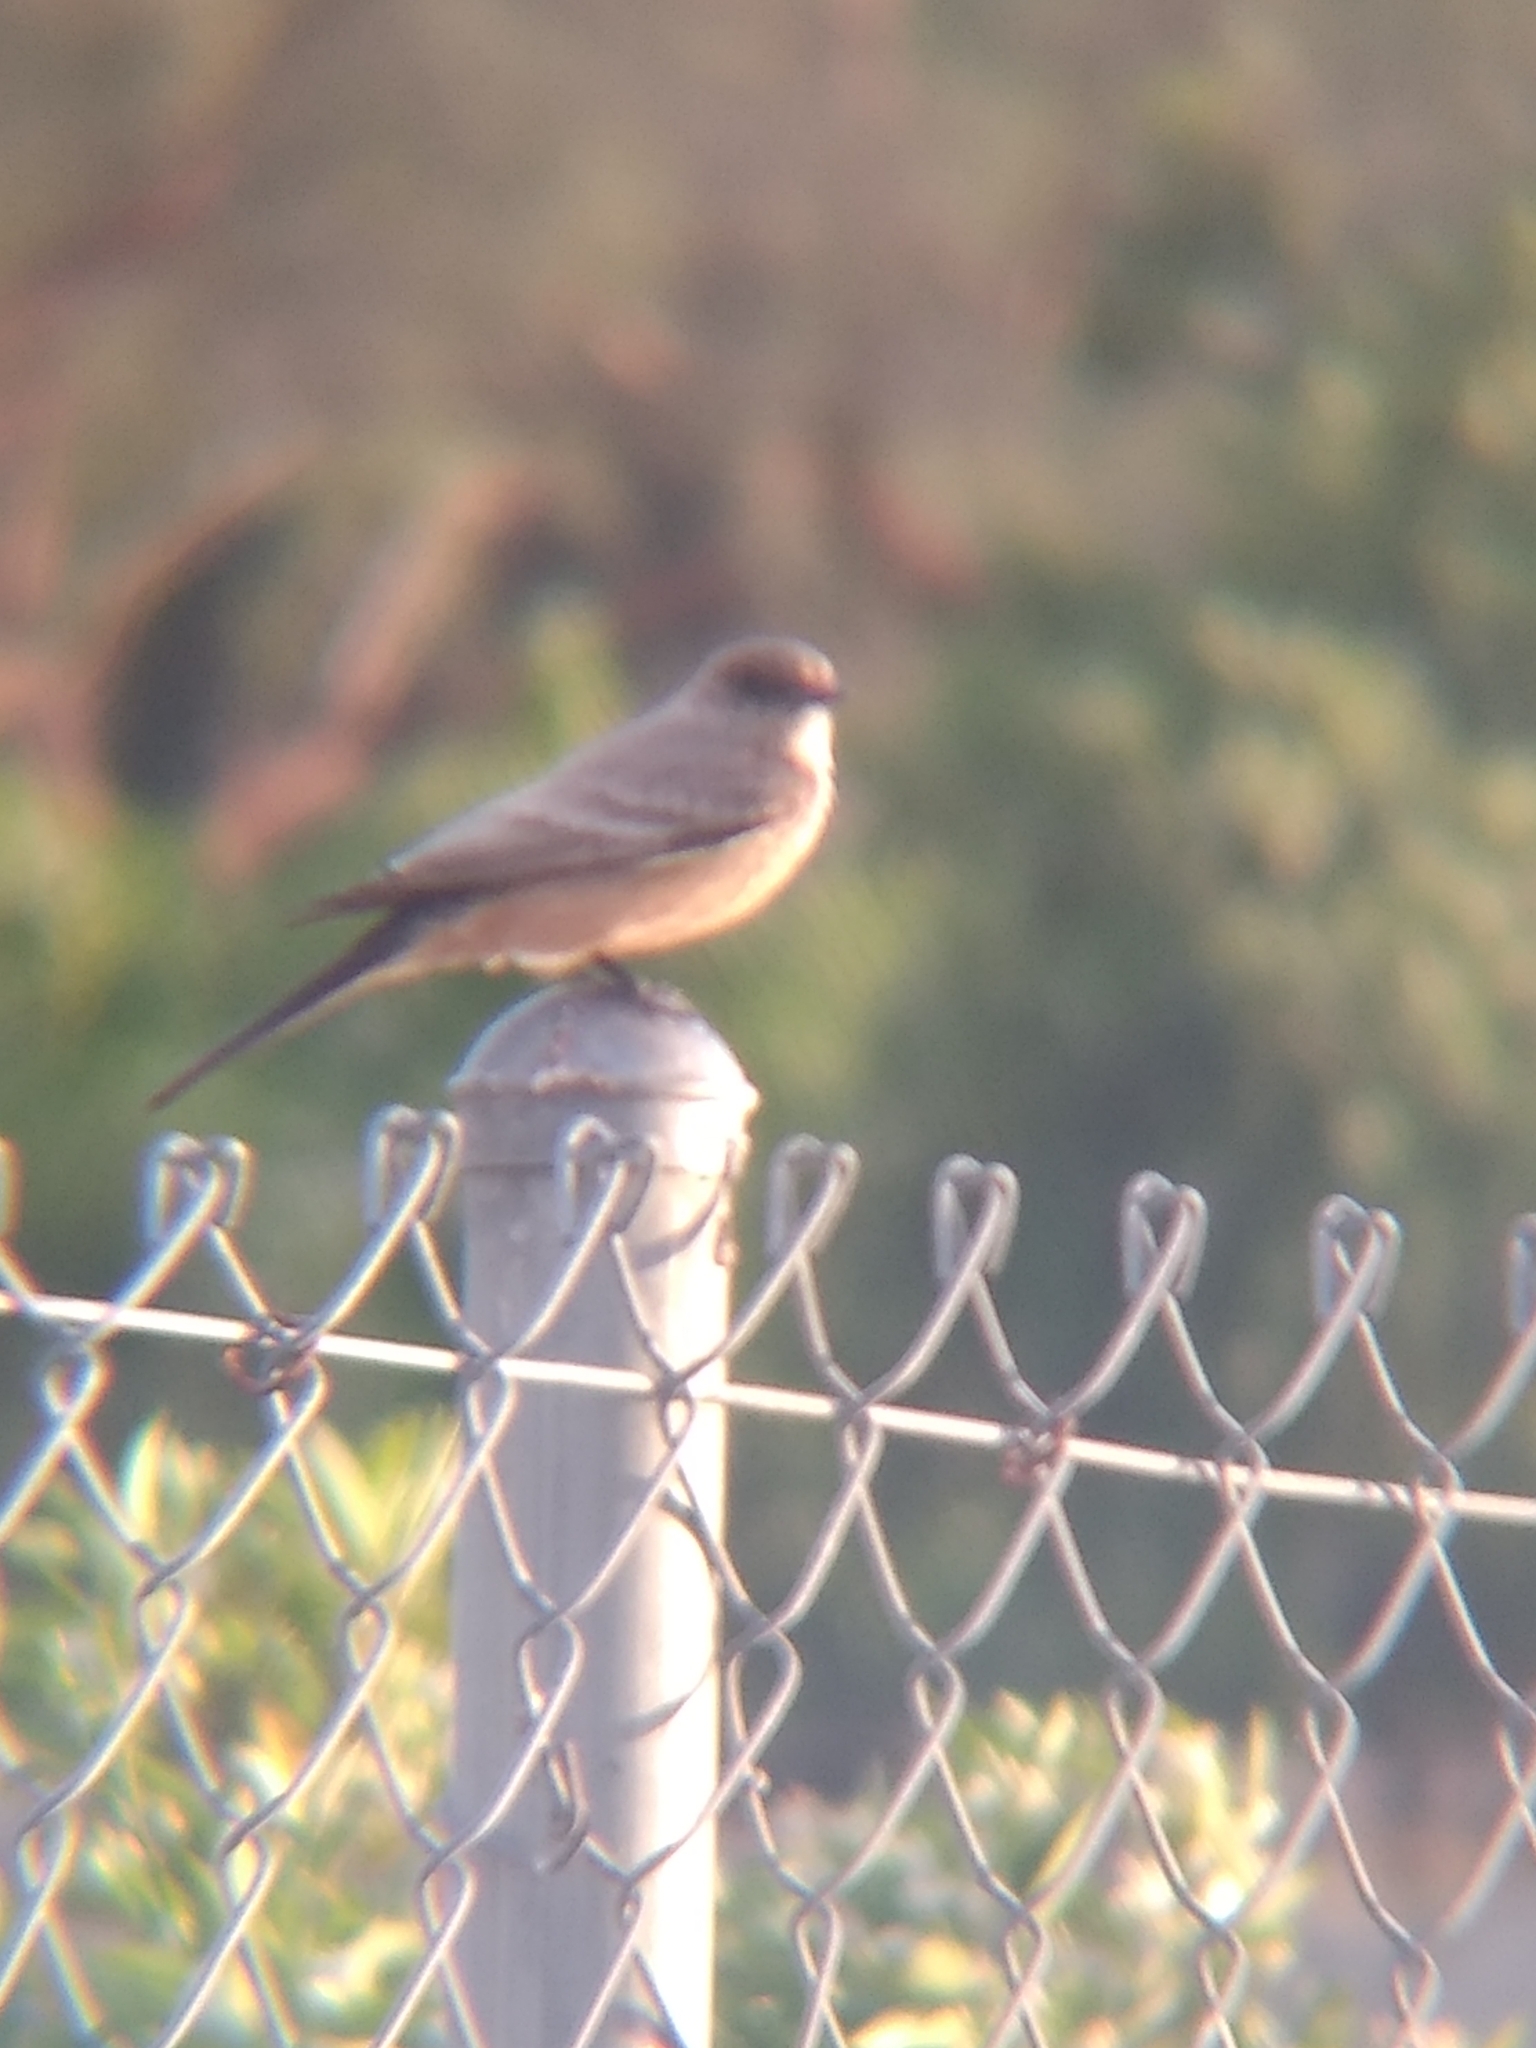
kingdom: Animalia
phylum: Chordata
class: Aves
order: Passeriformes
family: Tyrannidae
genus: Sayornis
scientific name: Sayornis saya
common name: Say's phoebe
